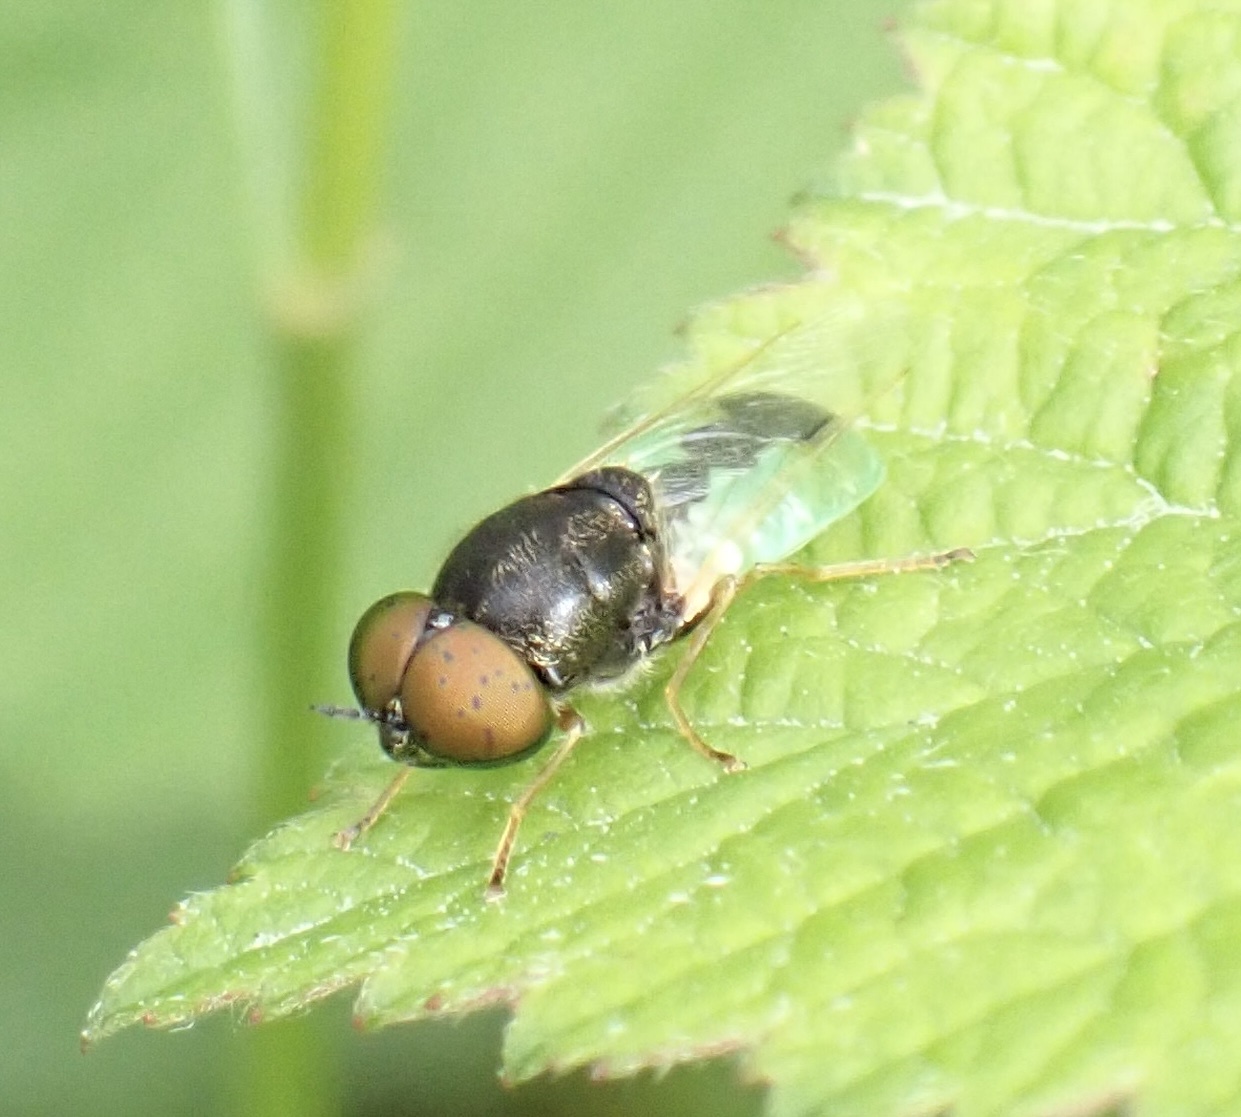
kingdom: Animalia
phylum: Arthropoda
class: Insecta
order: Diptera
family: Stratiomyidae
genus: Oplodontha
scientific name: Oplodontha viridula
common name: Common green colonel
